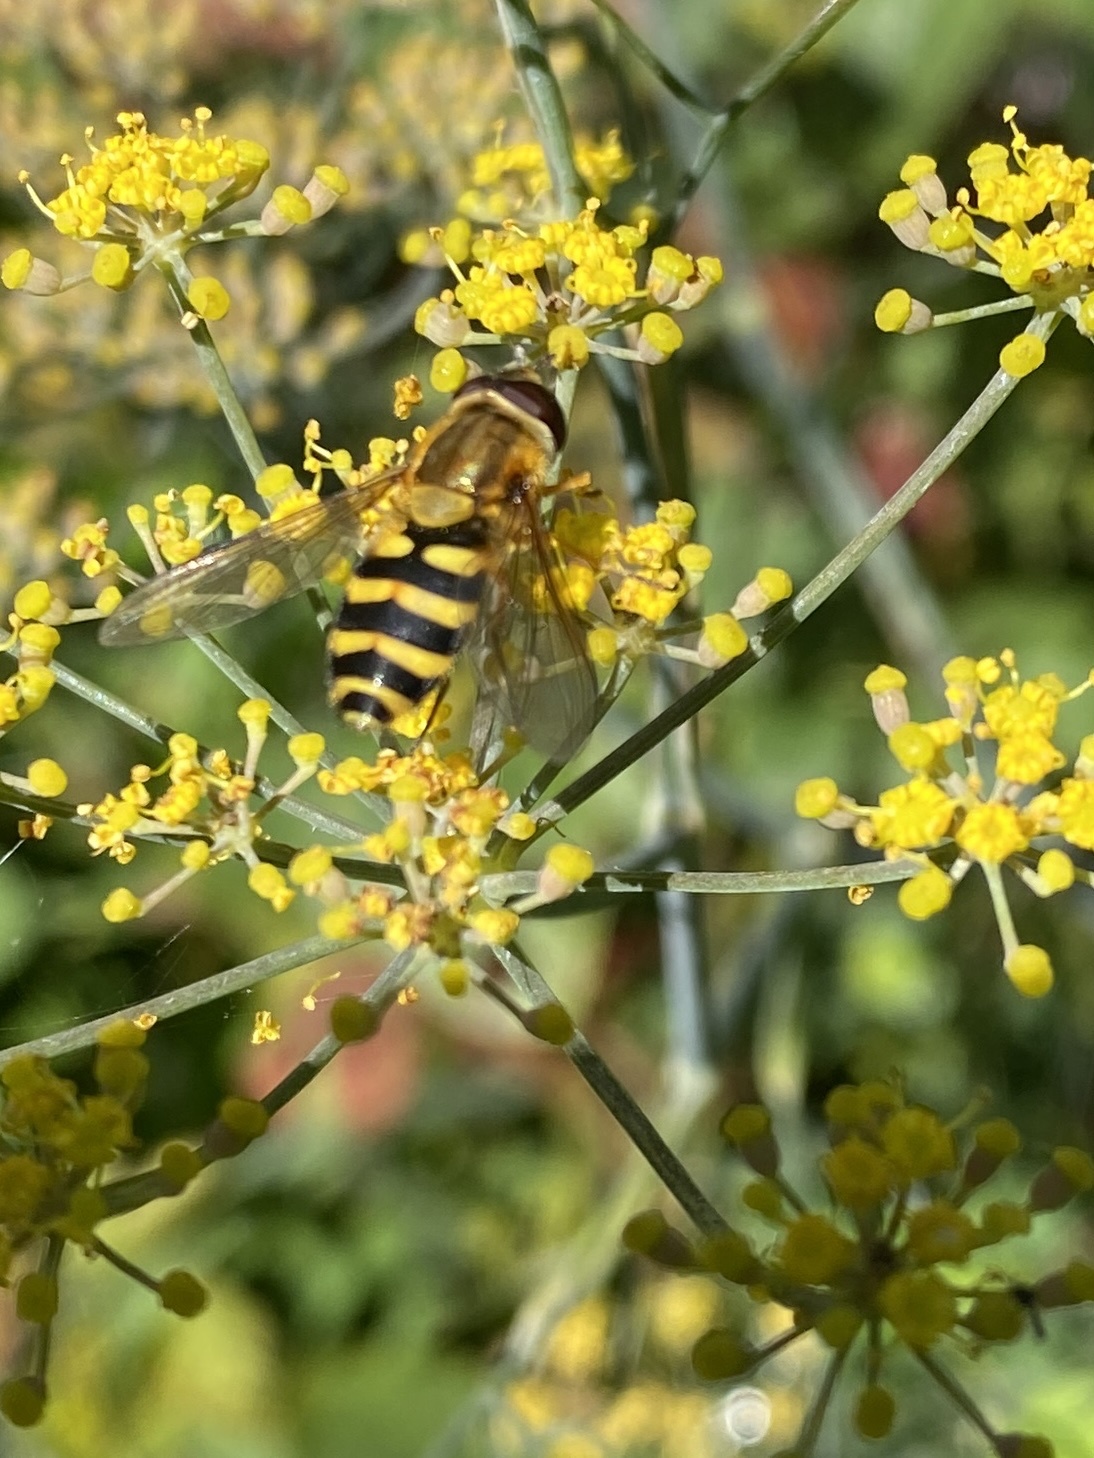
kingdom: Animalia
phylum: Arthropoda
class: Insecta
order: Diptera
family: Syrphidae
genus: Syrphus
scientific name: Syrphus ribesii
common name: Common flower fly
